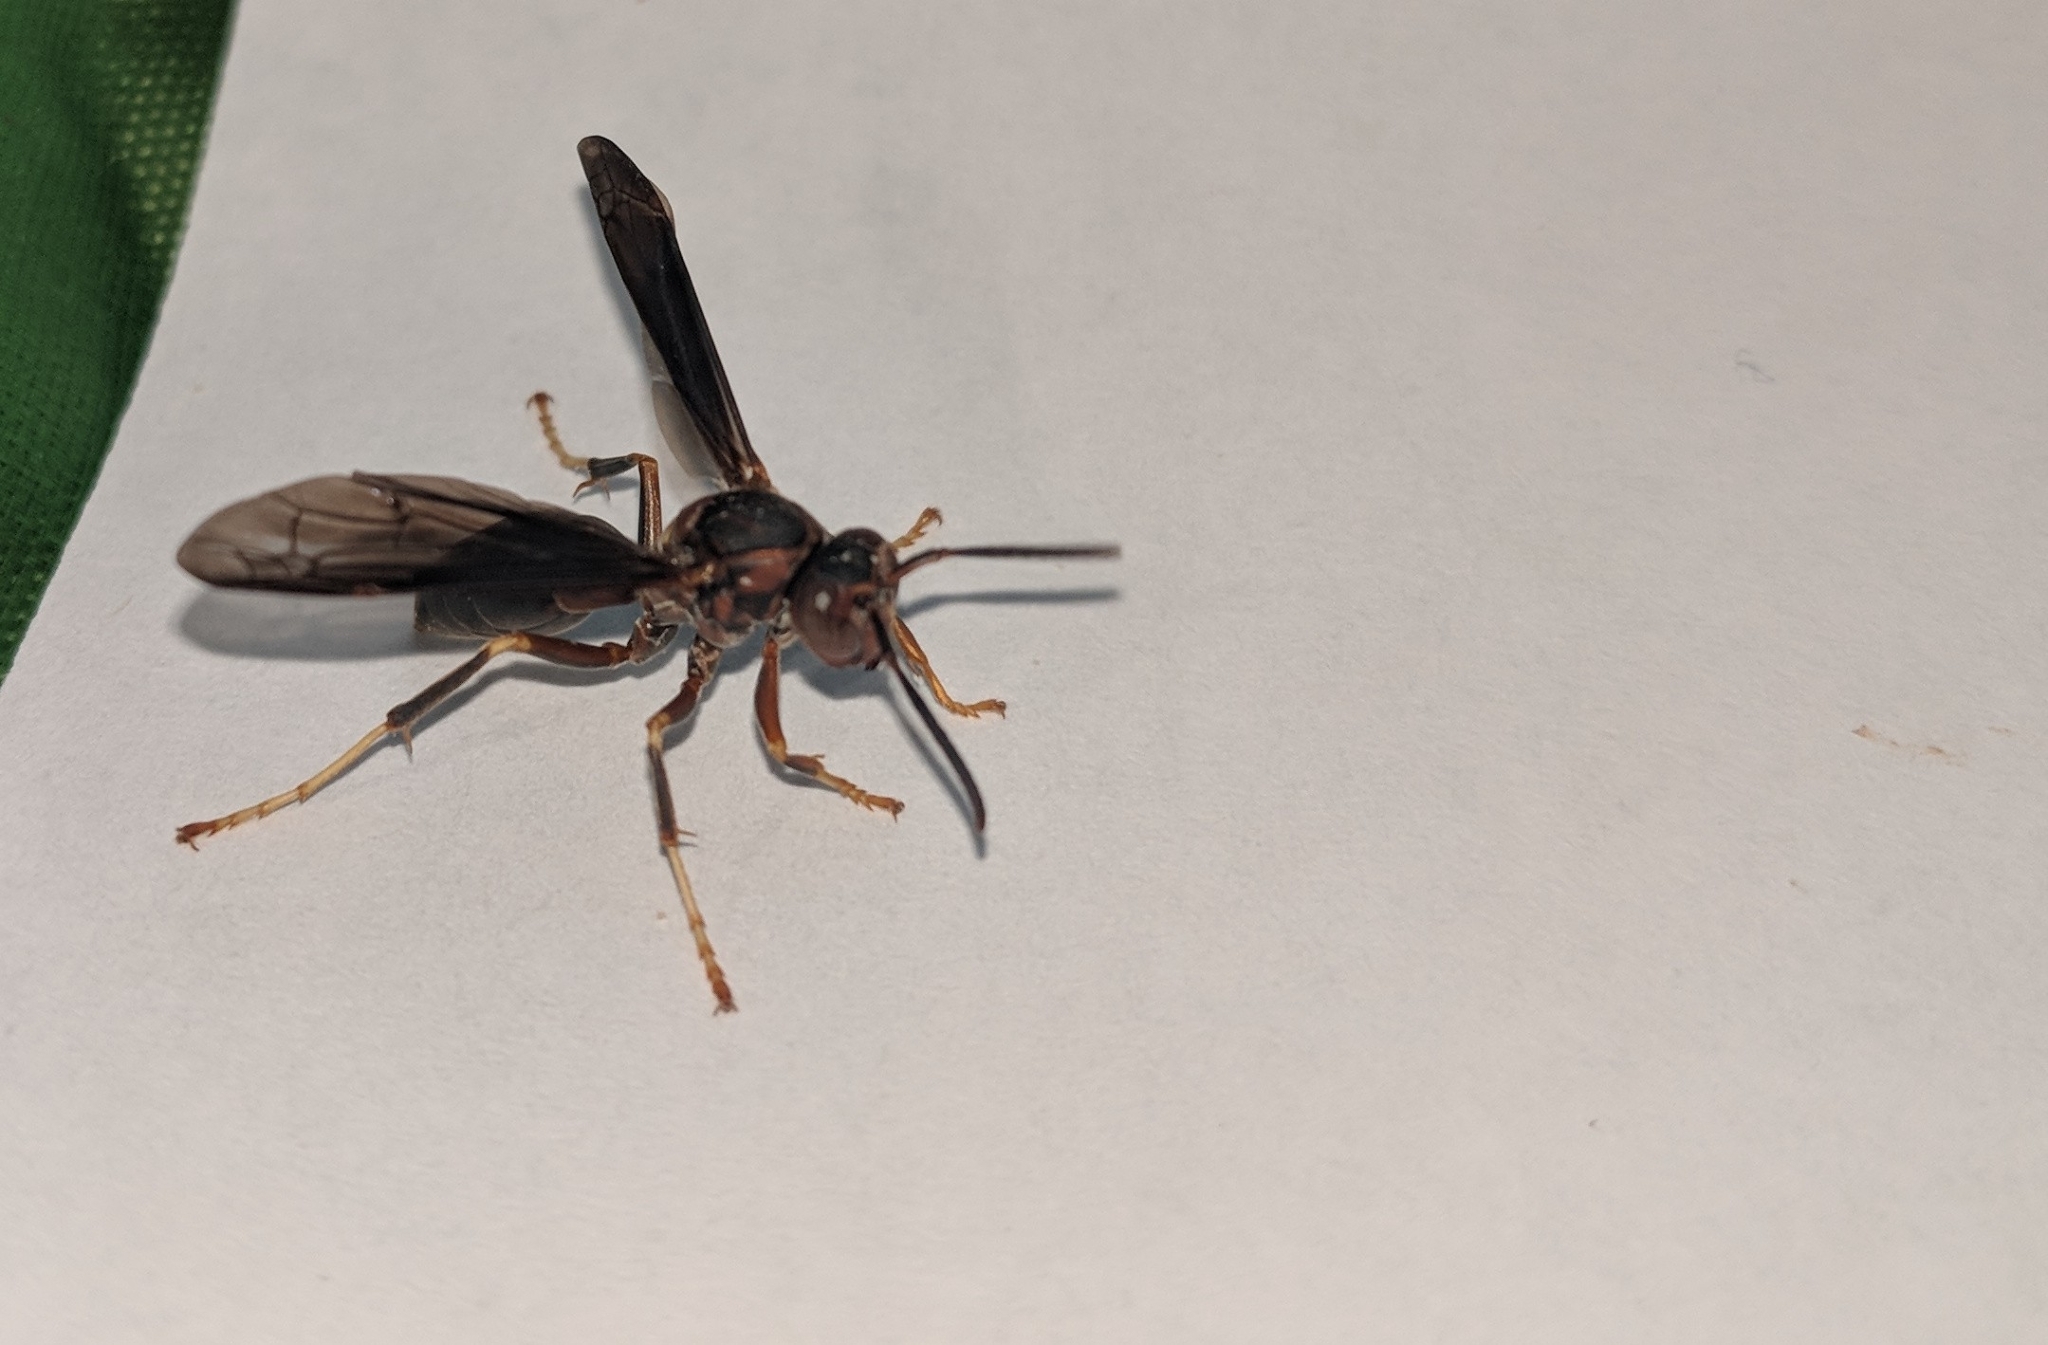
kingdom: Animalia
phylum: Arthropoda
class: Insecta
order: Hymenoptera
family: Eumenidae
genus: Polistes
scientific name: Polistes metricus
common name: Metric paper wasp
